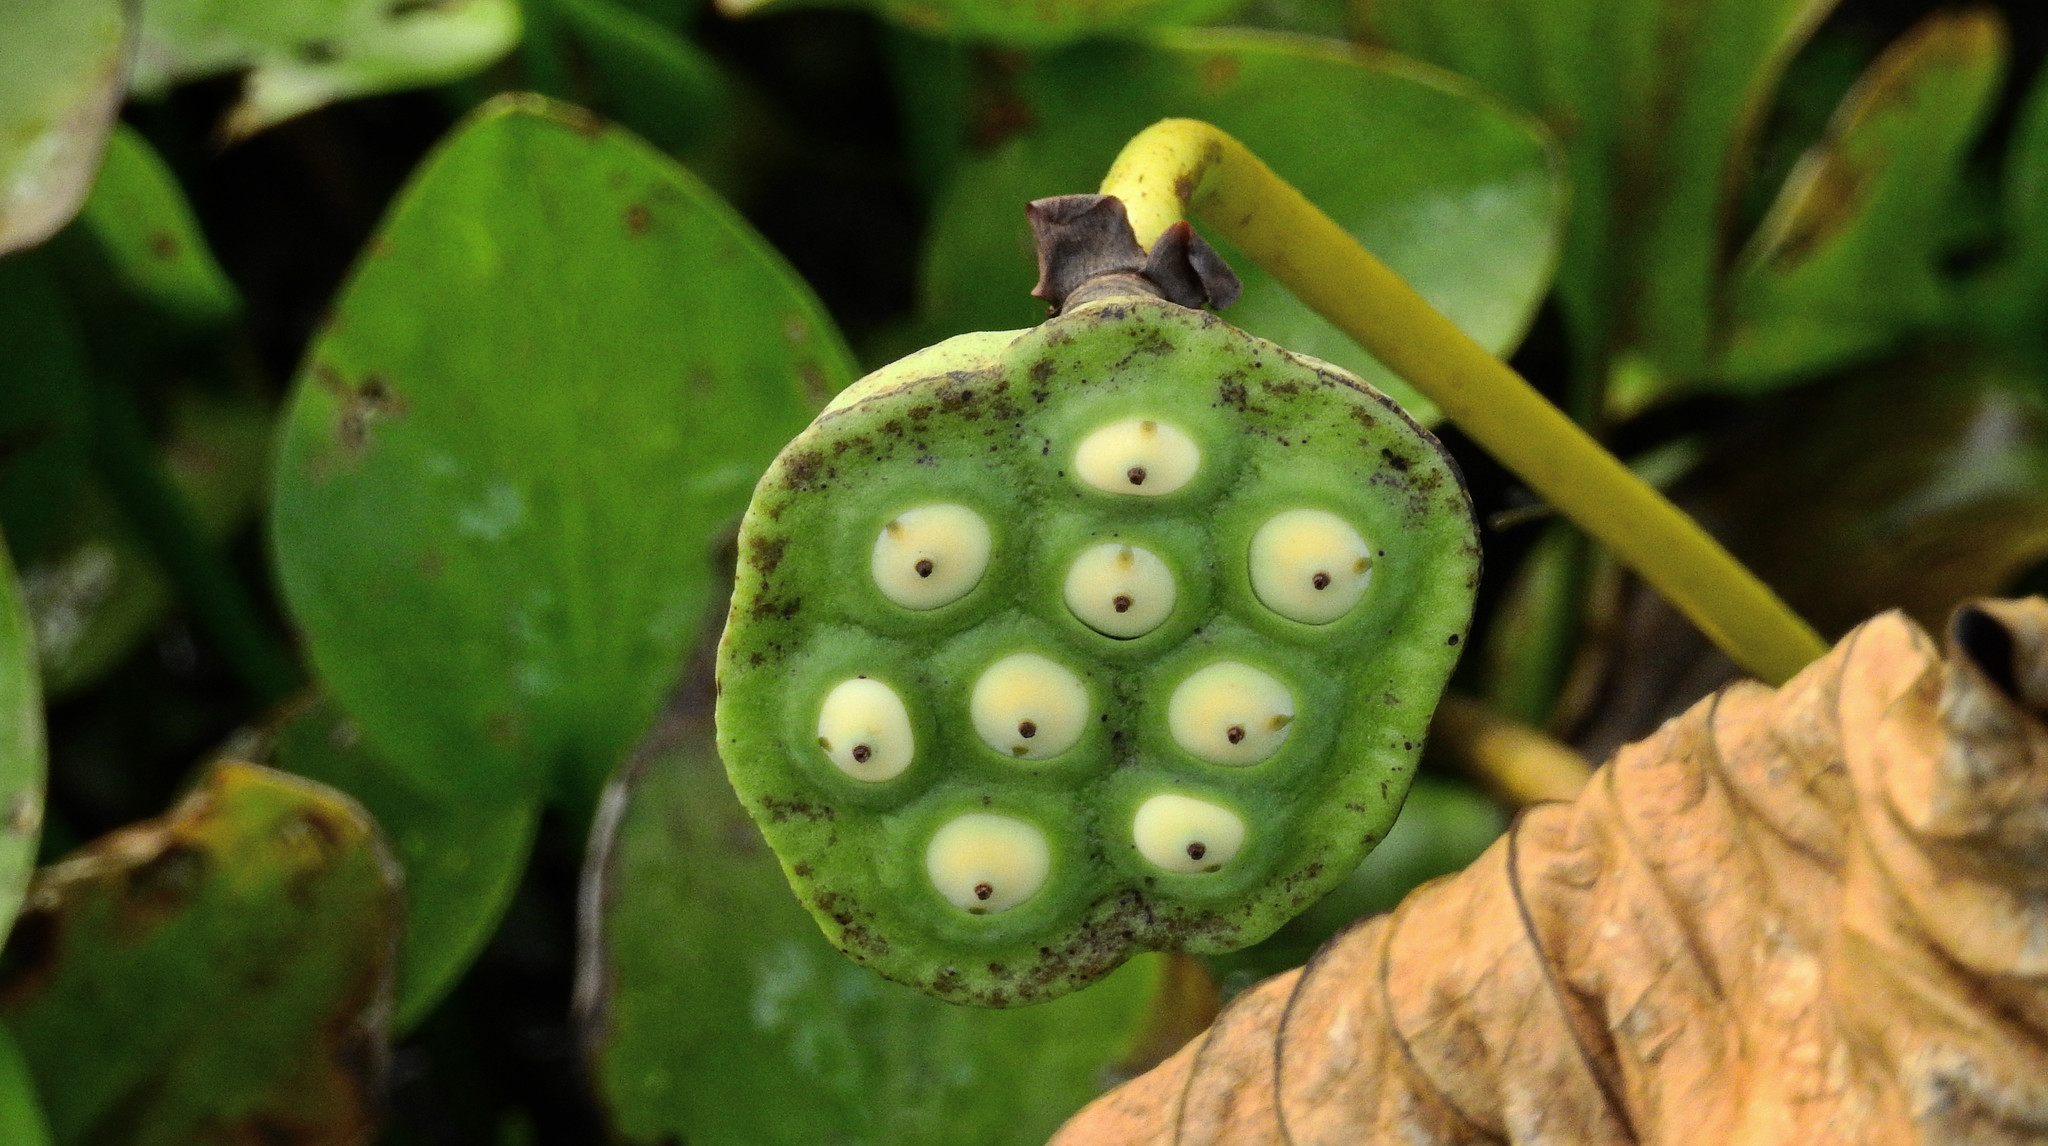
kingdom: Plantae
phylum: Tracheophyta
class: Magnoliopsida
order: Proteales
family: Nelumbonaceae
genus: Nelumbo
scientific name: Nelumbo lutea
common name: American lotus
